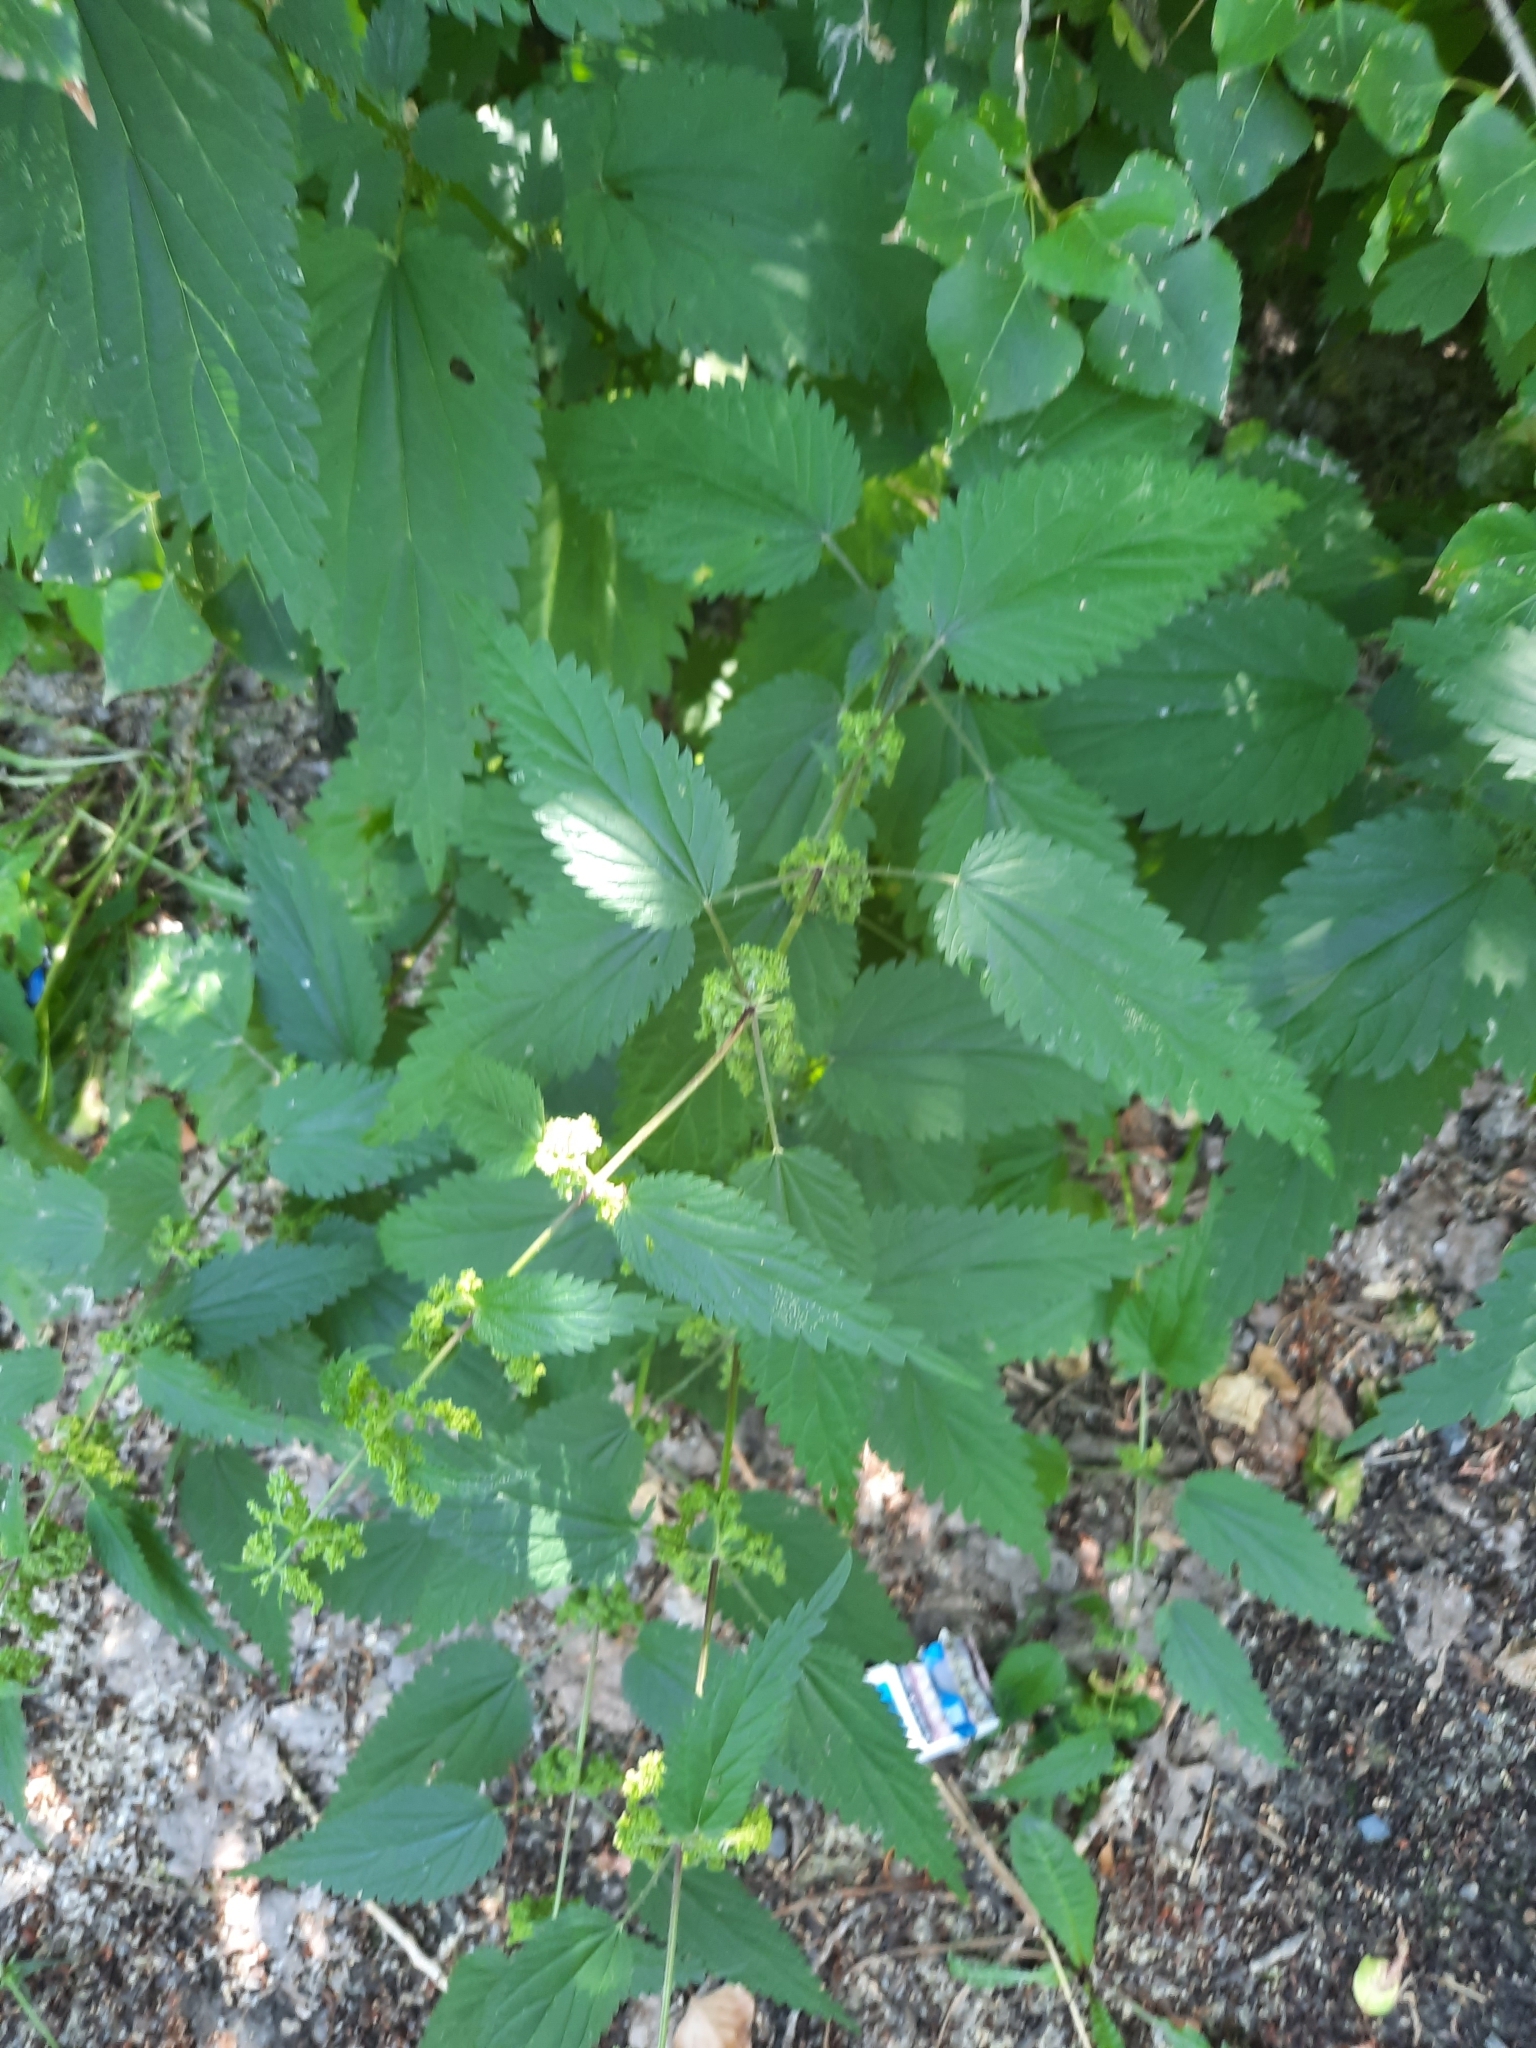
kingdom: Plantae
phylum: Tracheophyta
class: Magnoliopsida
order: Rosales
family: Urticaceae
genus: Urtica
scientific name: Urtica dioica
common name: Common nettle
